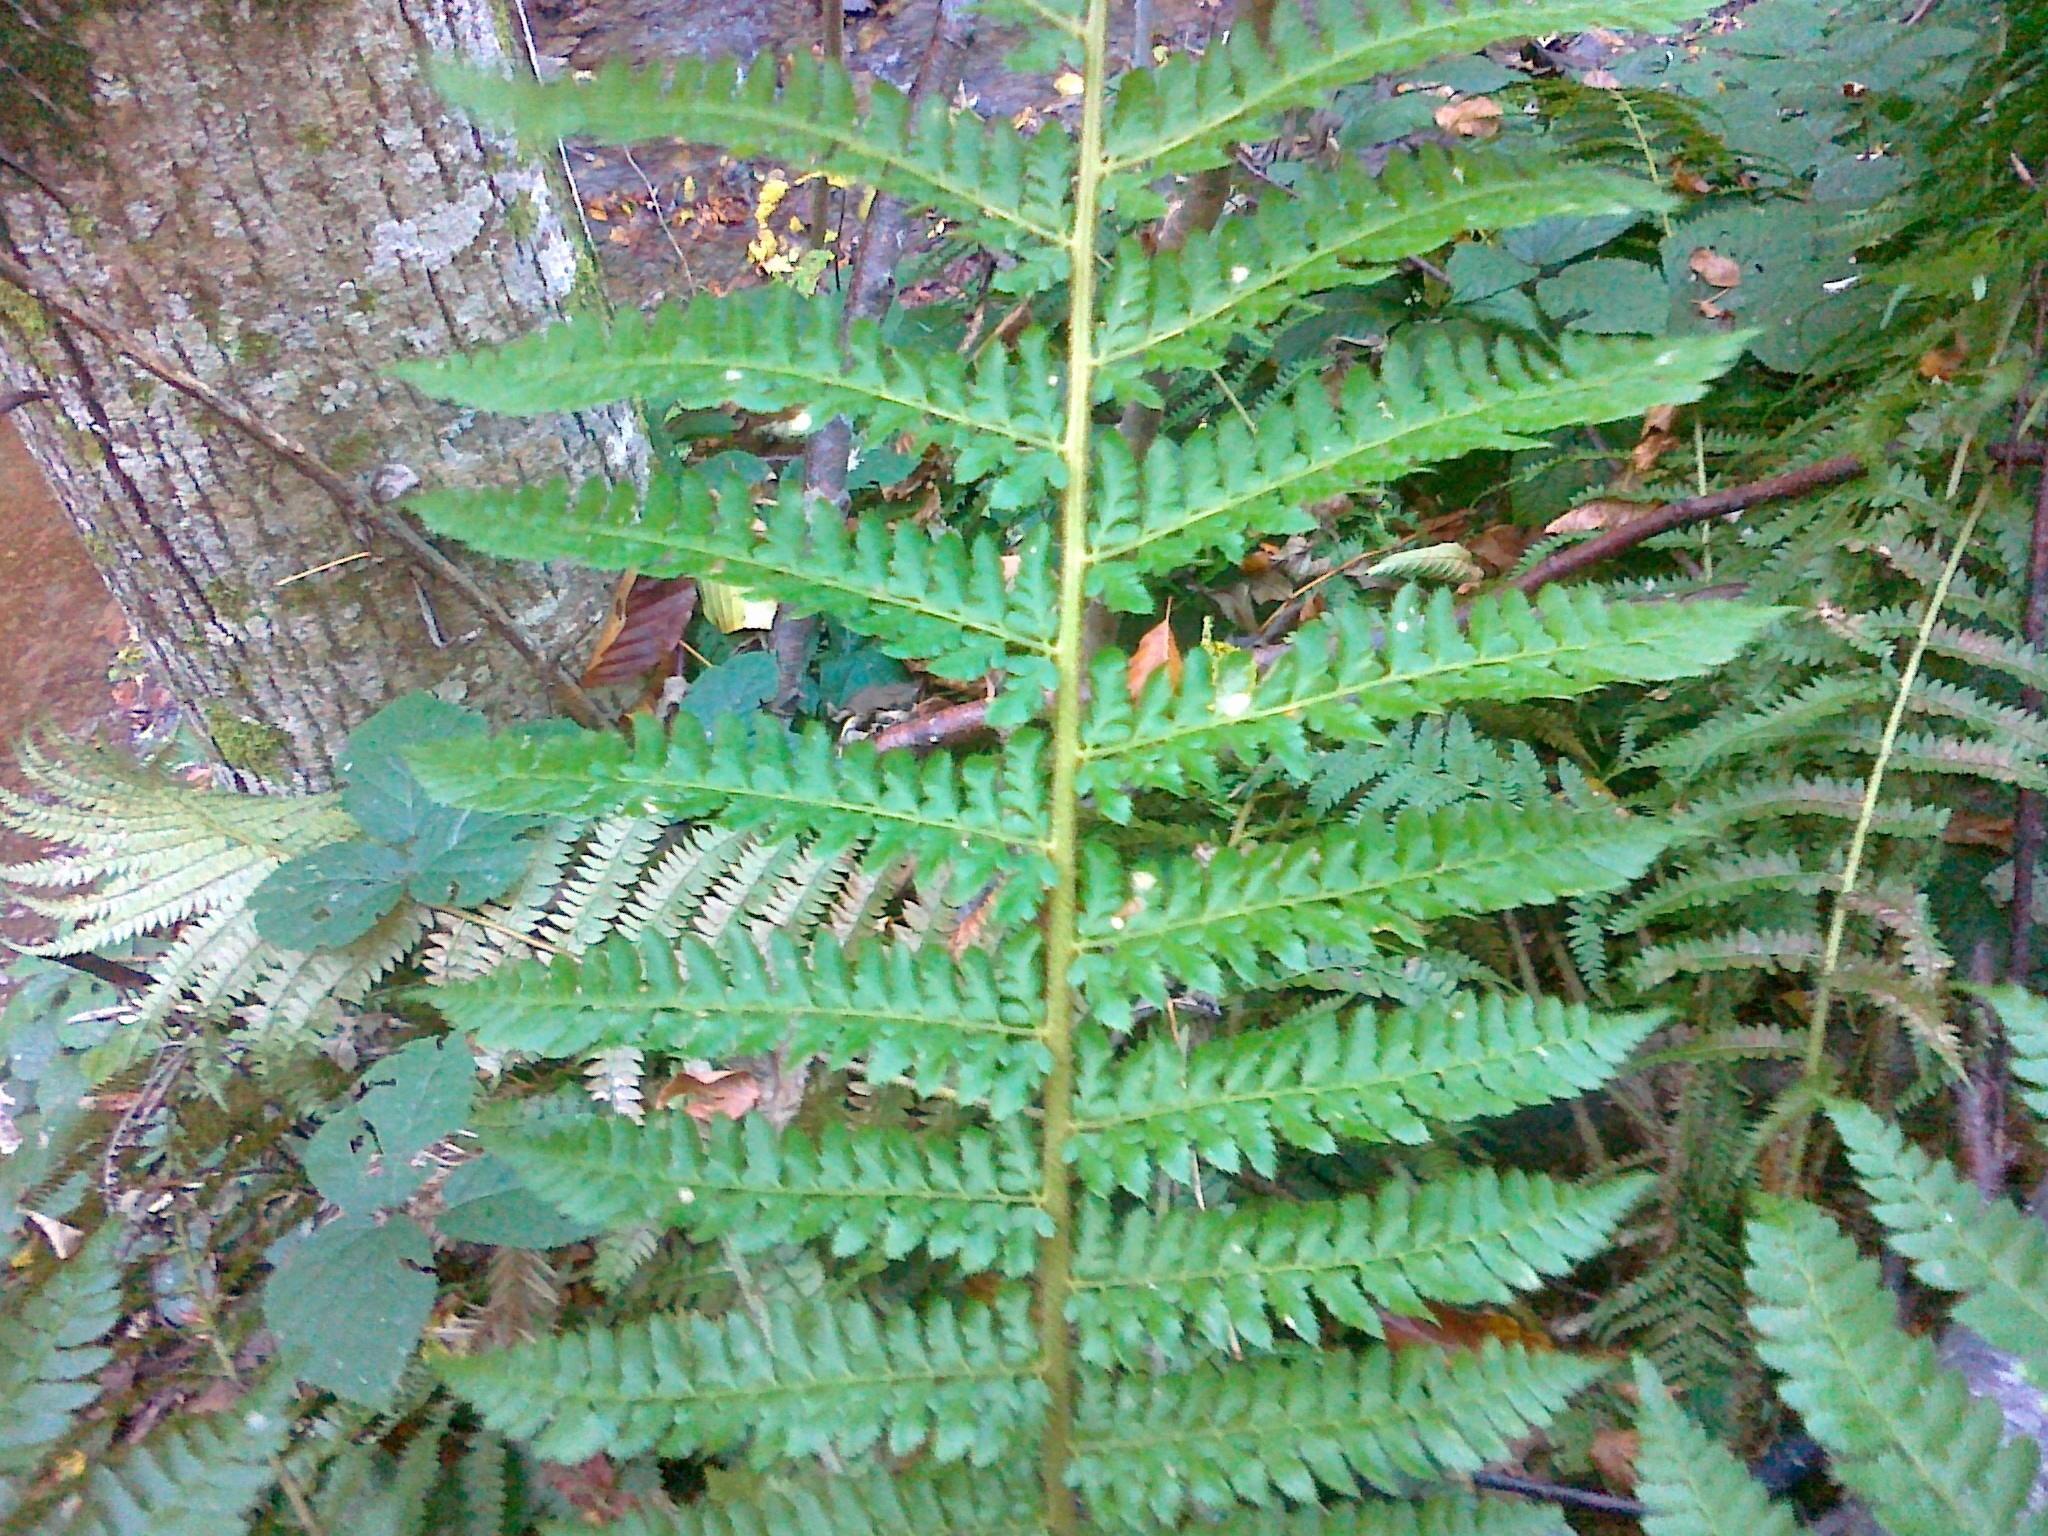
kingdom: Plantae
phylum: Tracheophyta
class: Polypodiopsida
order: Polypodiales
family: Dryopteridaceae
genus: Polystichum
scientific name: Polystichum wirtgenii
